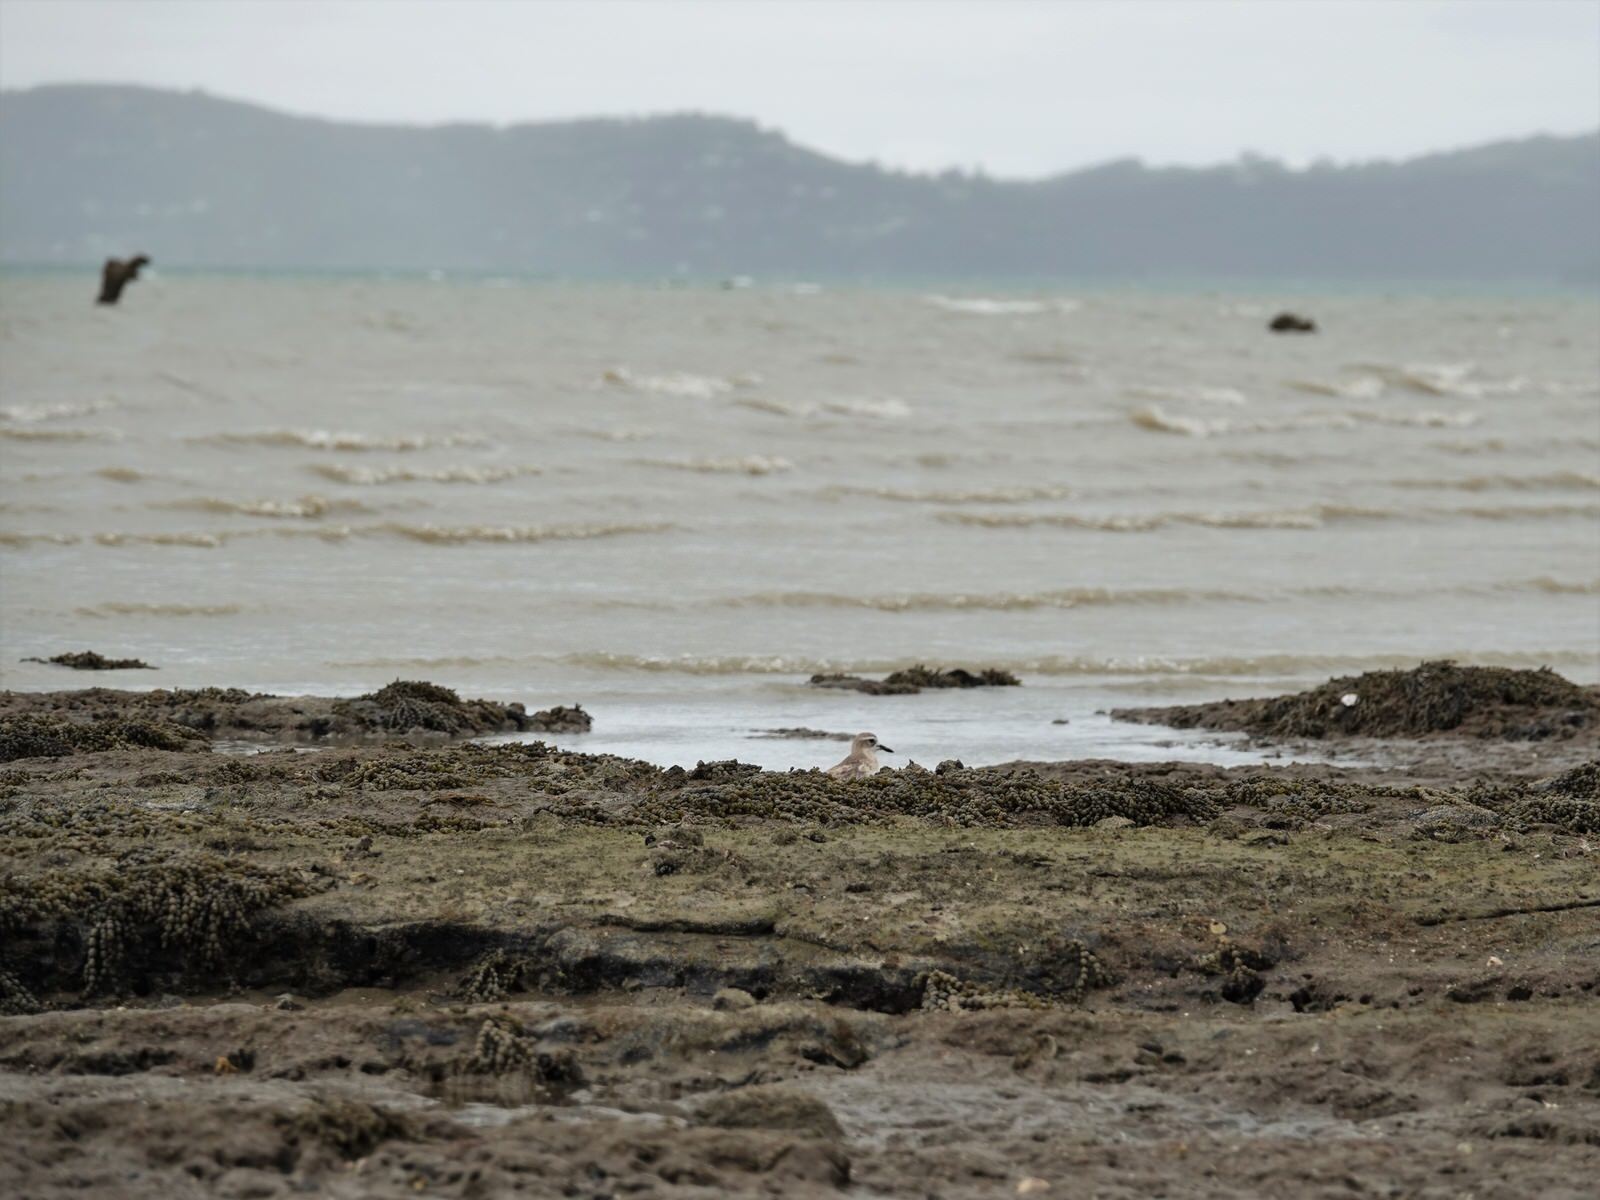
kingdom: Animalia
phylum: Chordata
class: Aves
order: Charadriiformes
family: Charadriidae
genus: Anarhynchus
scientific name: Anarhynchus
